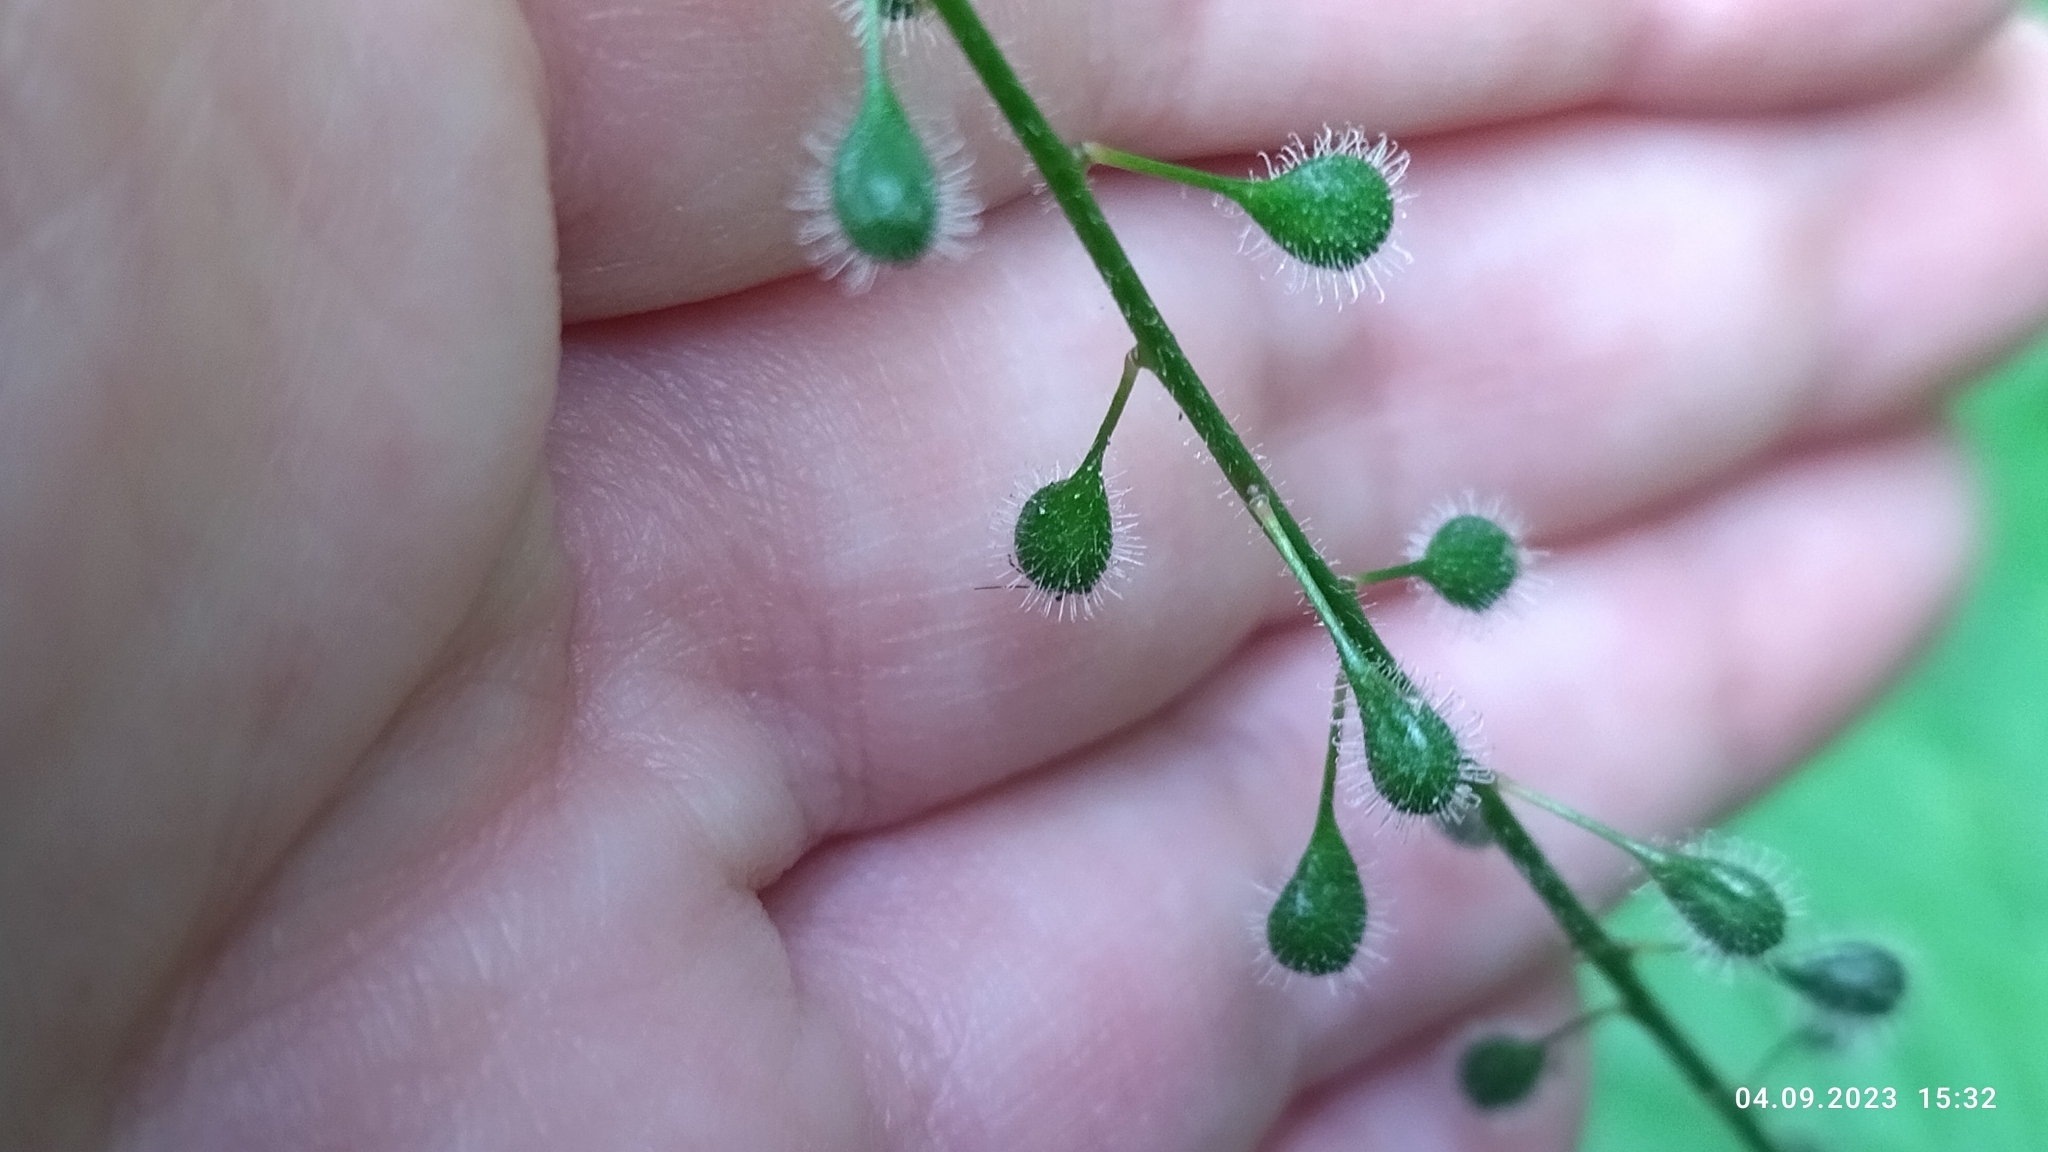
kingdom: Plantae
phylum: Tracheophyta
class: Magnoliopsida
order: Myrtales
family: Onagraceae
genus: Circaea
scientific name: Circaea lutetiana
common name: Enchanter's-nightshade
